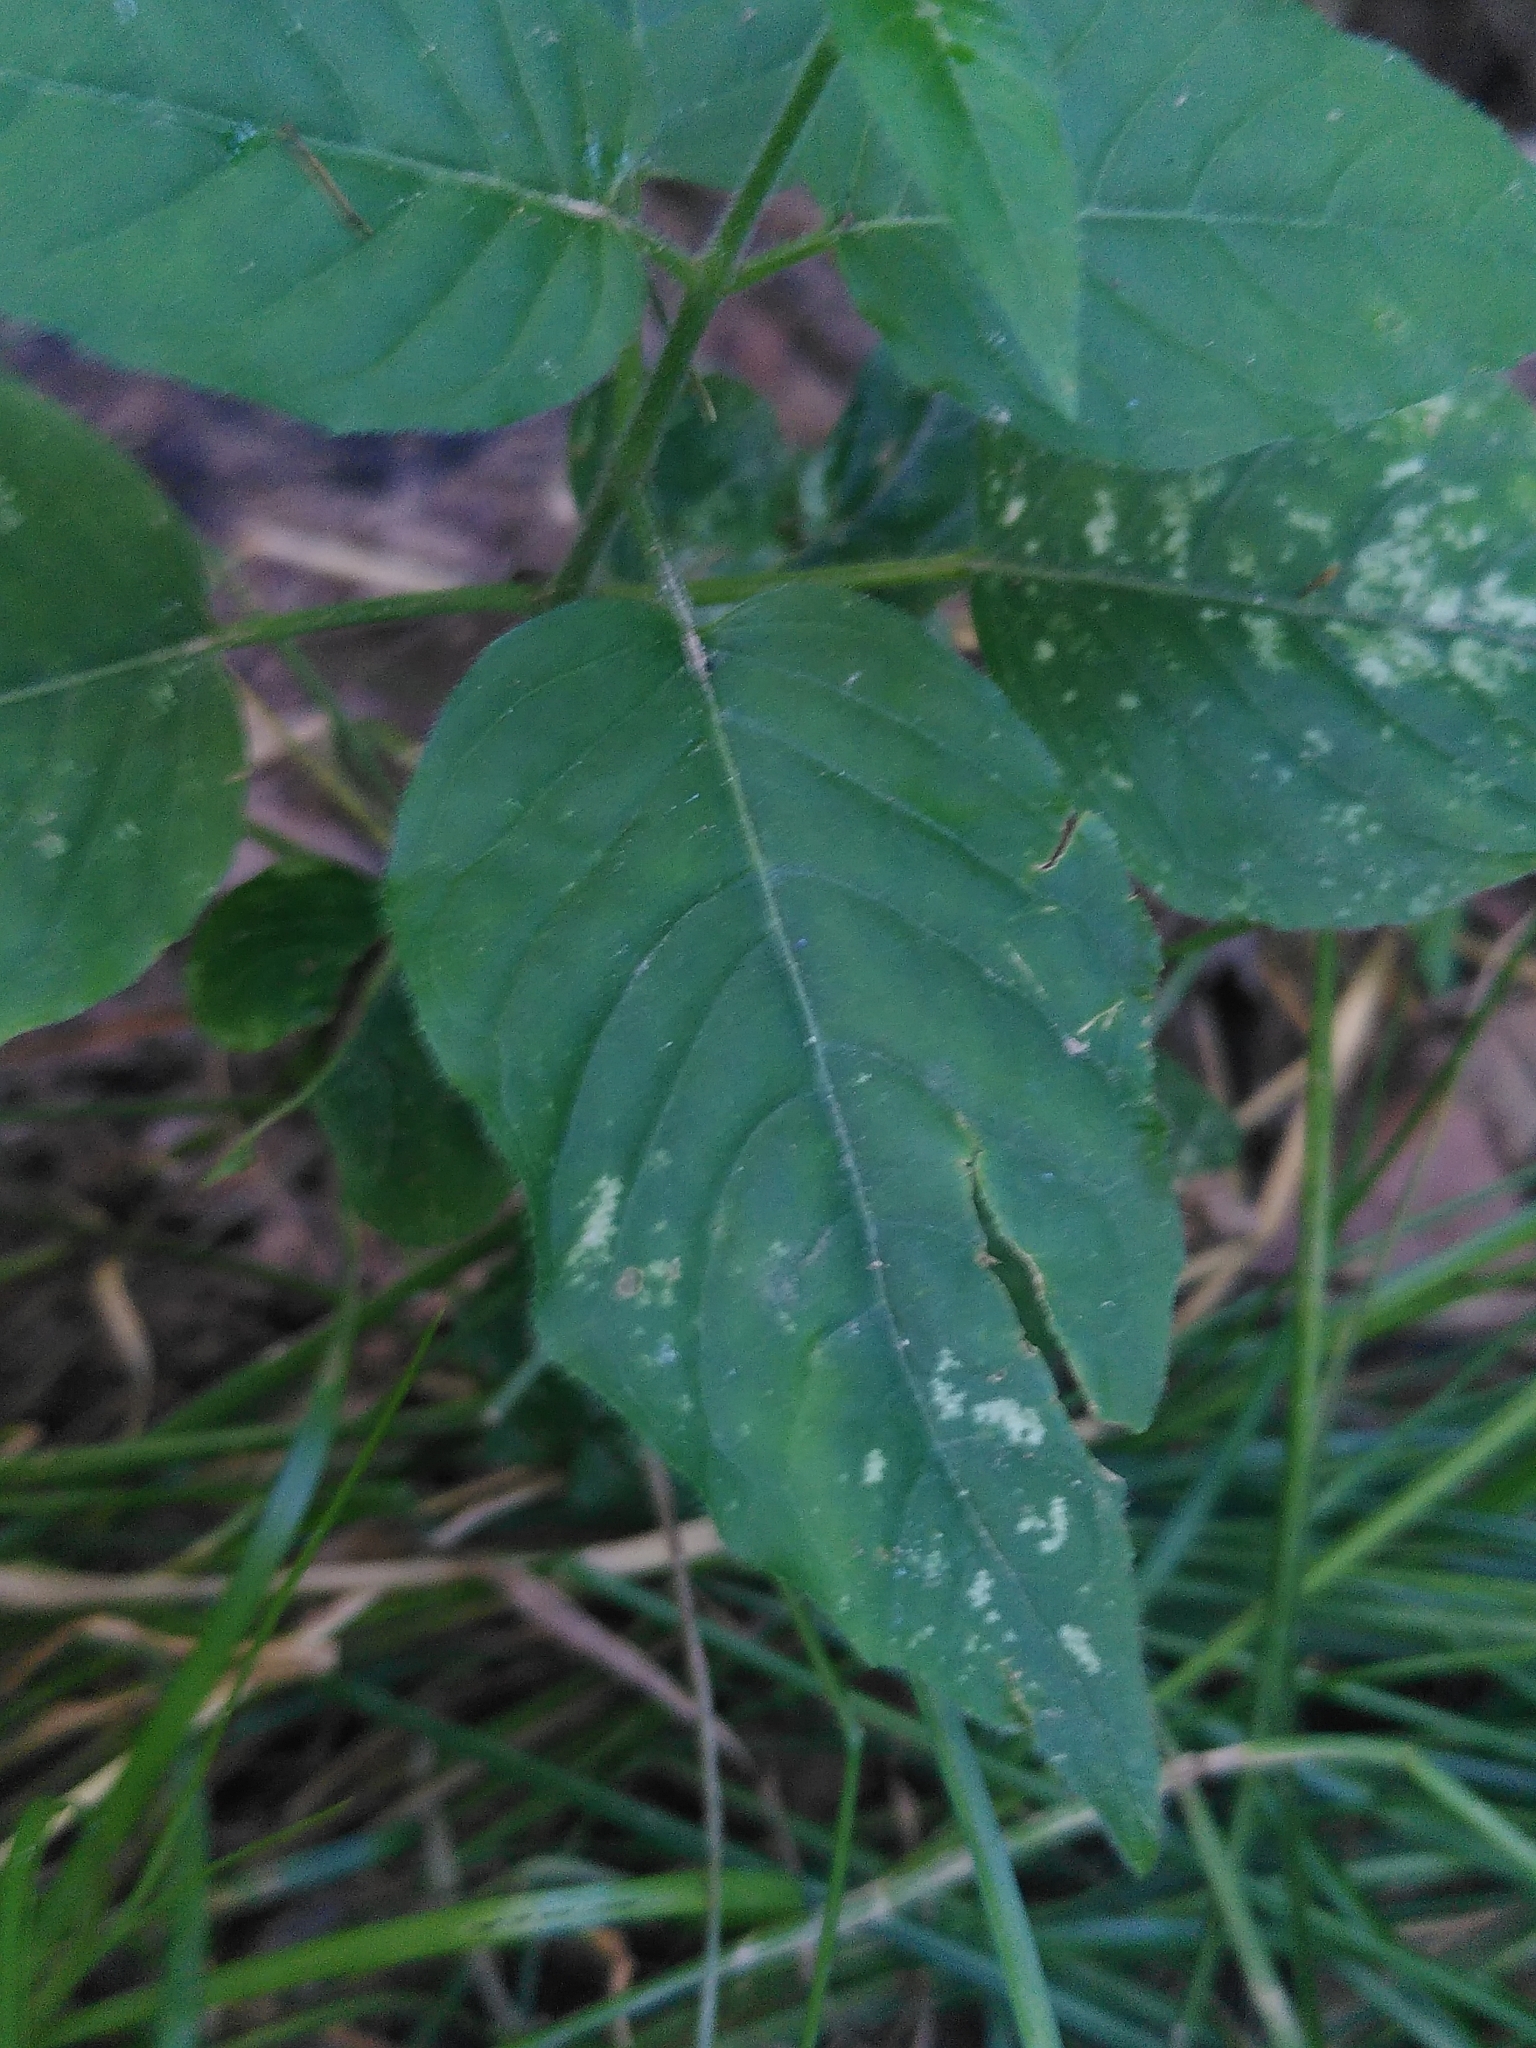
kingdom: Plantae
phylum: Tracheophyta
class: Magnoliopsida
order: Myrtales
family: Onagraceae
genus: Circaea
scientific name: Circaea lutetiana
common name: Enchanter's-nightshade
